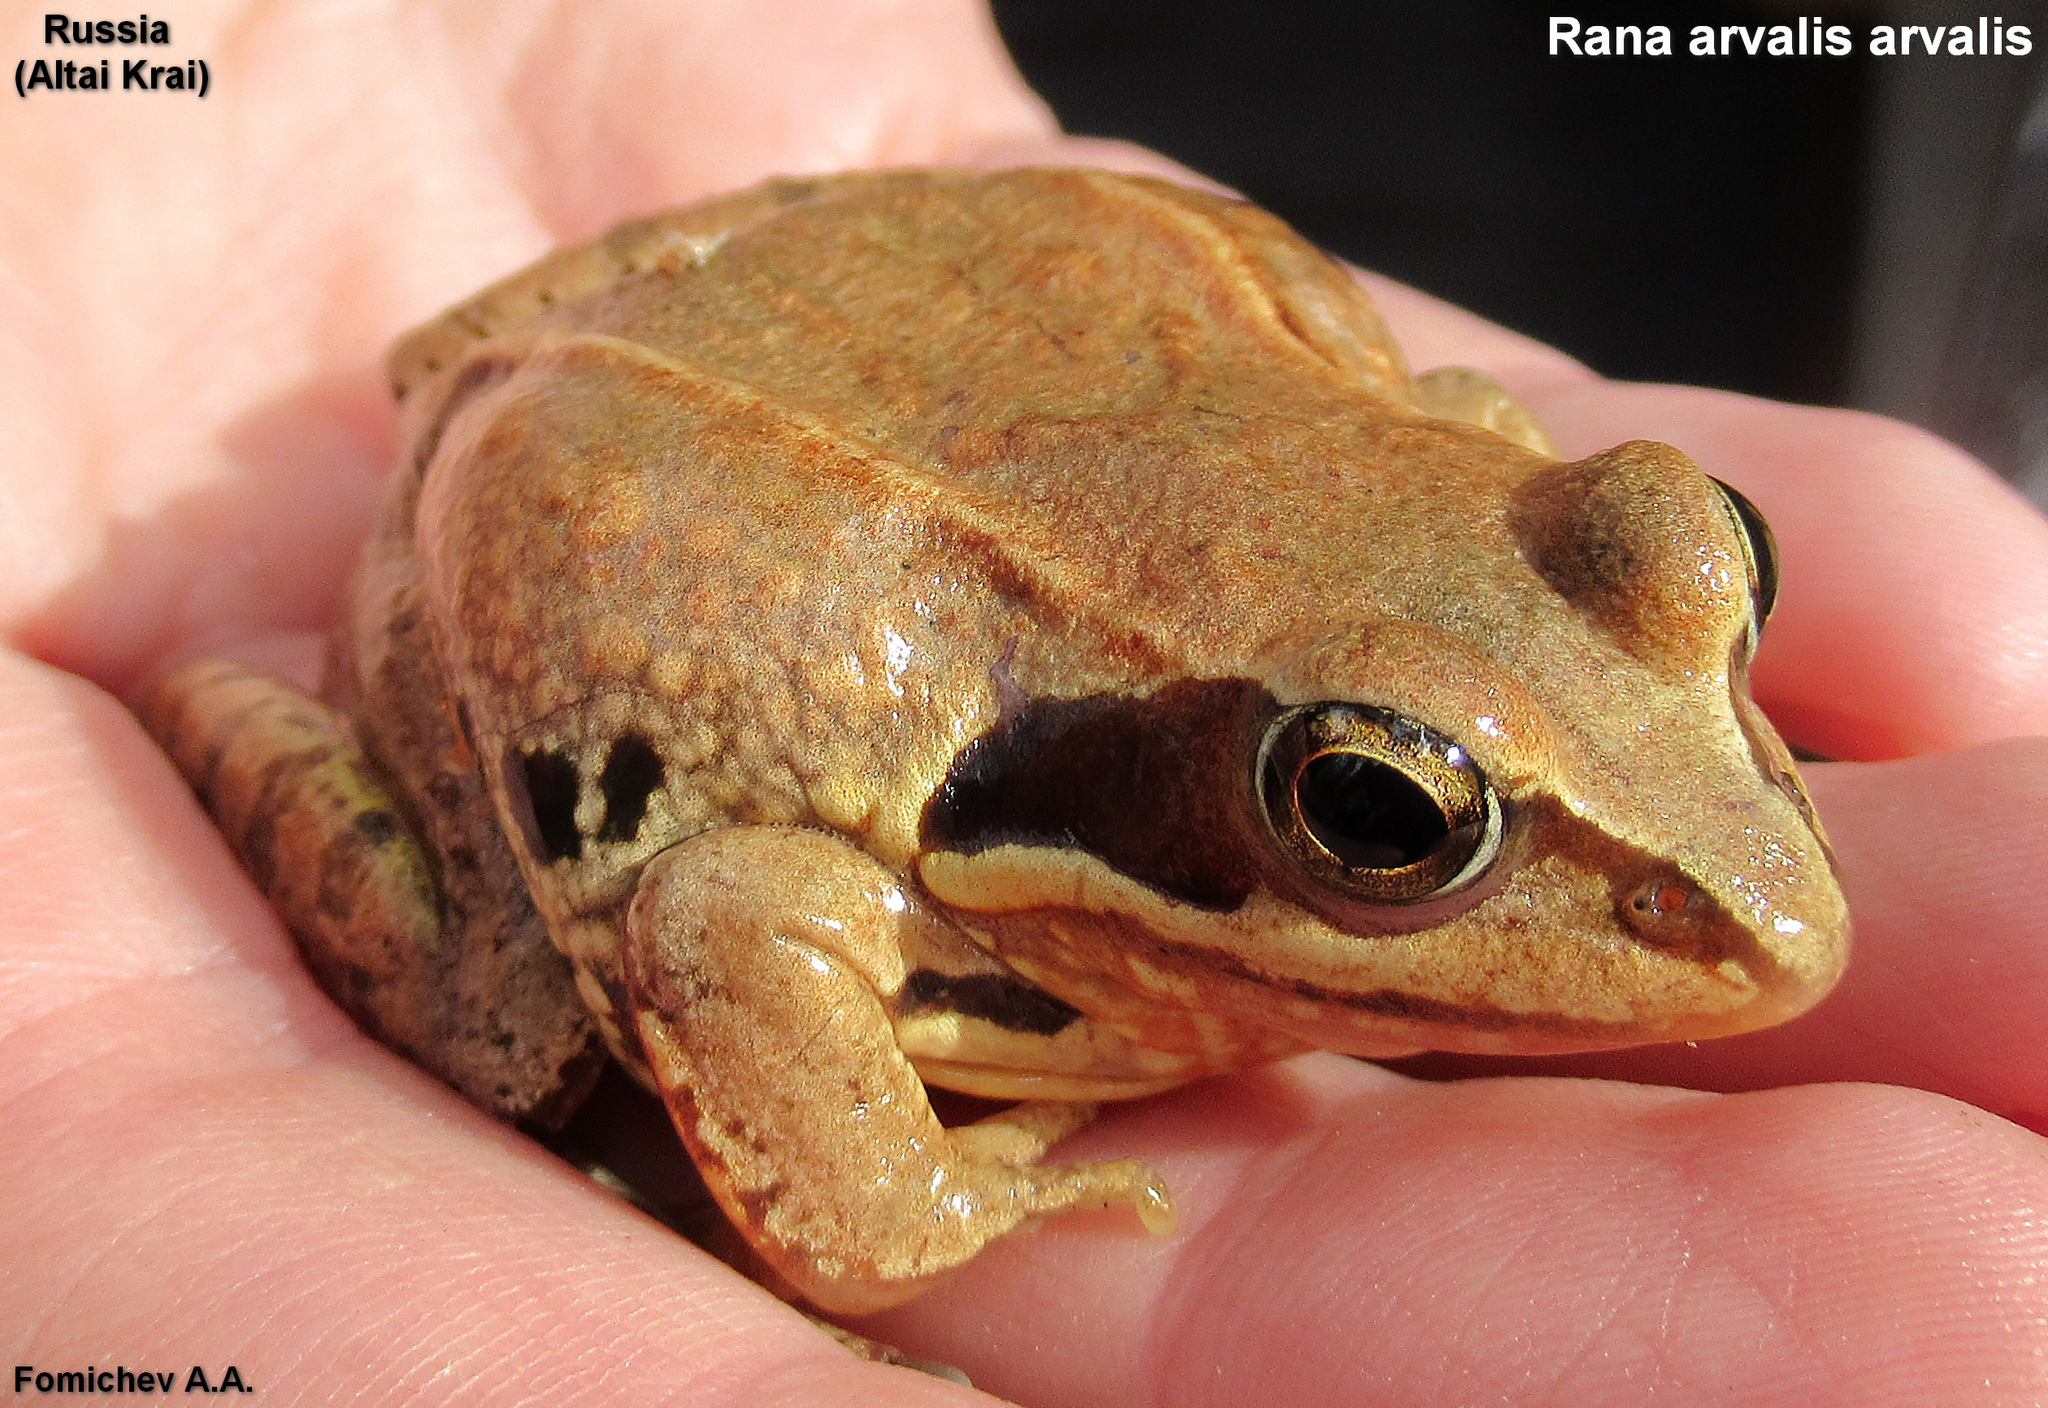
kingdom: Animalia
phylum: Chordata
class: Amphibia
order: Anura
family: Ranidae
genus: Rana
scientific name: Rana arvalis
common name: Moor frog
